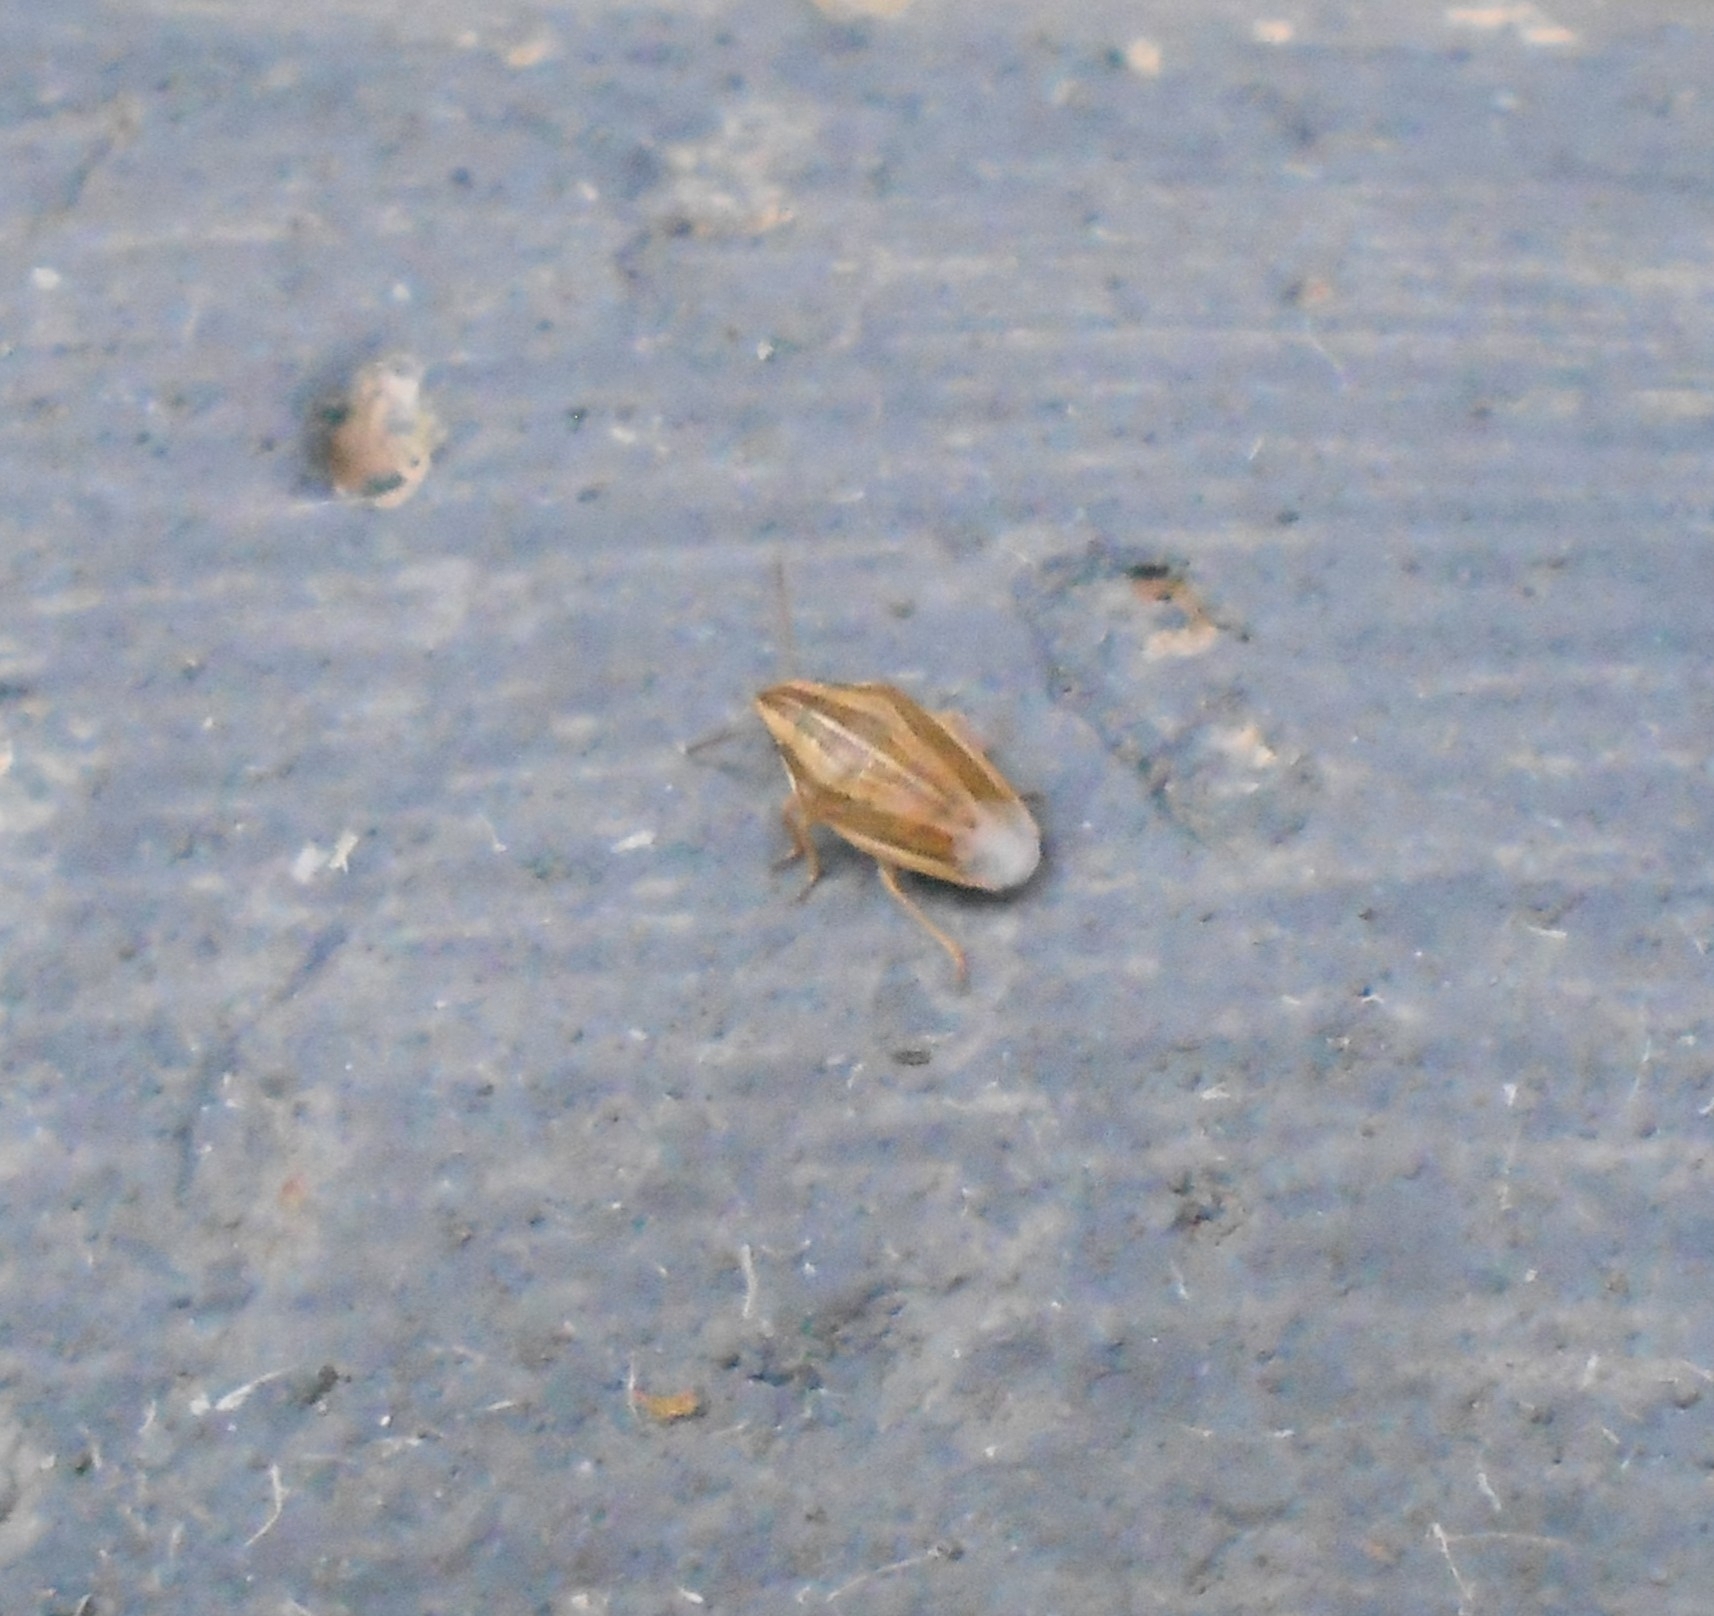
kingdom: Animalia
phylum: Arthropoda
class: Insecta
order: Hemiptera
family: Pentatomidae
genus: Aelia
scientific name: Aelia acuminata
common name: Bishop's mitre
